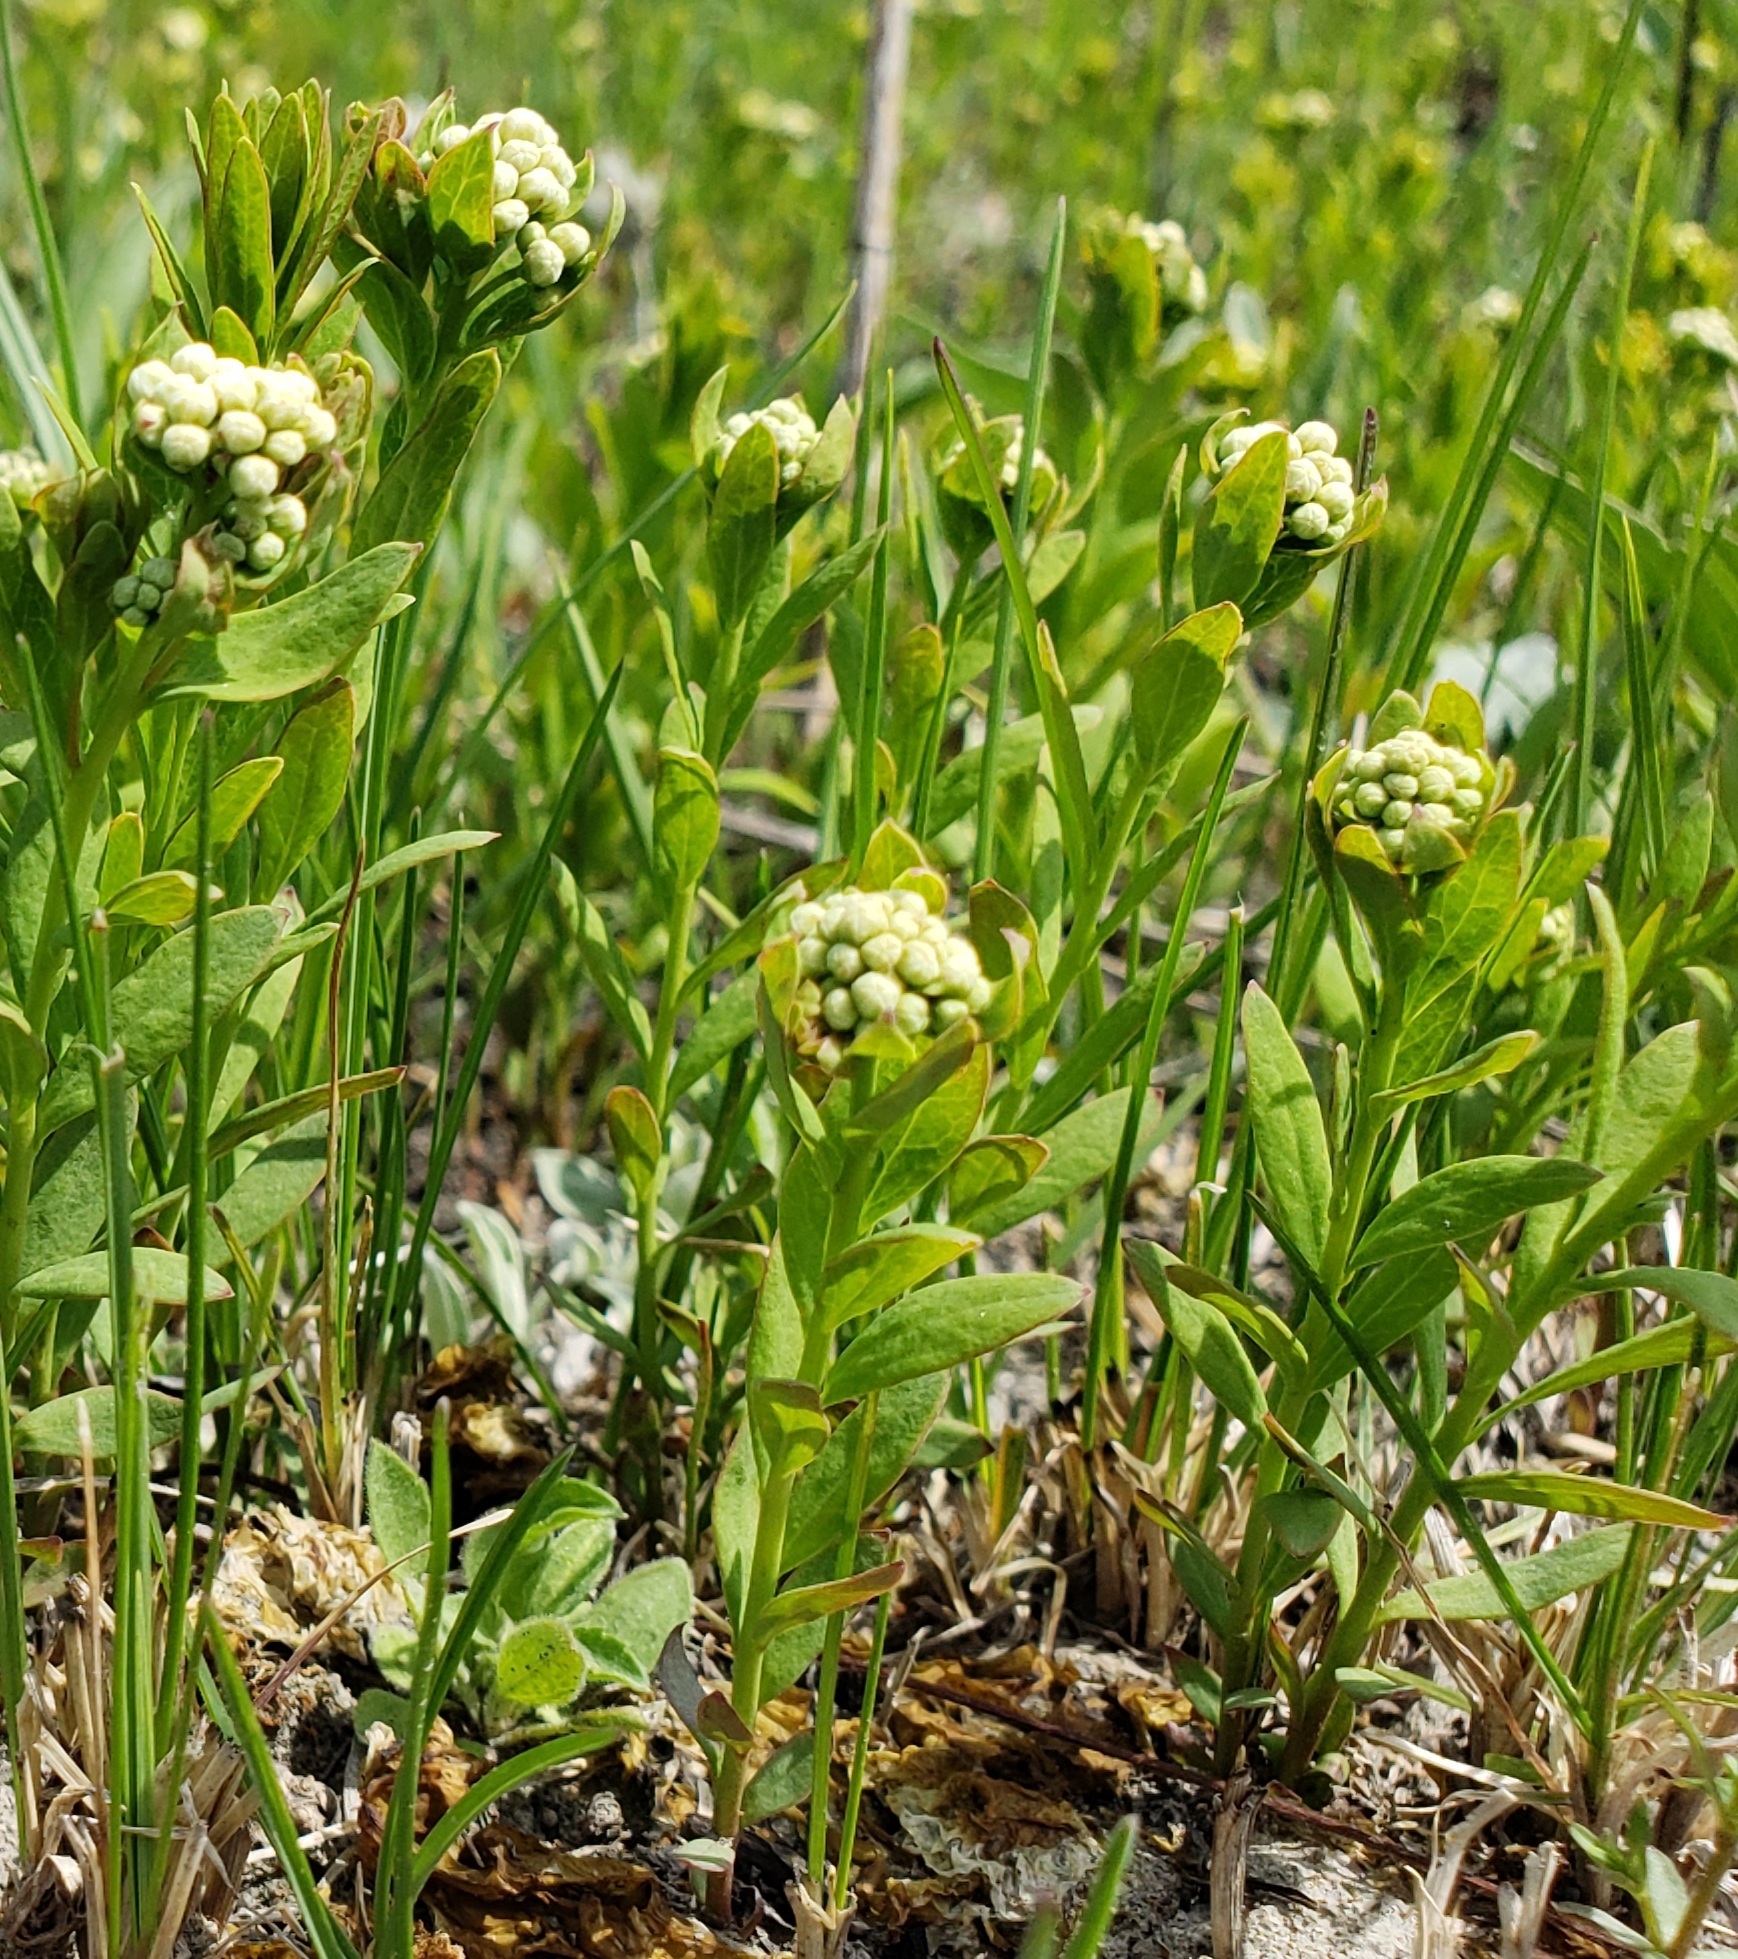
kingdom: Plantae
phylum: Tracheophyta
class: Magnoliopsida
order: Santalales
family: Comandraceae
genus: Comandra
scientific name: Comandra umbellata
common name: Bastard toadflax
